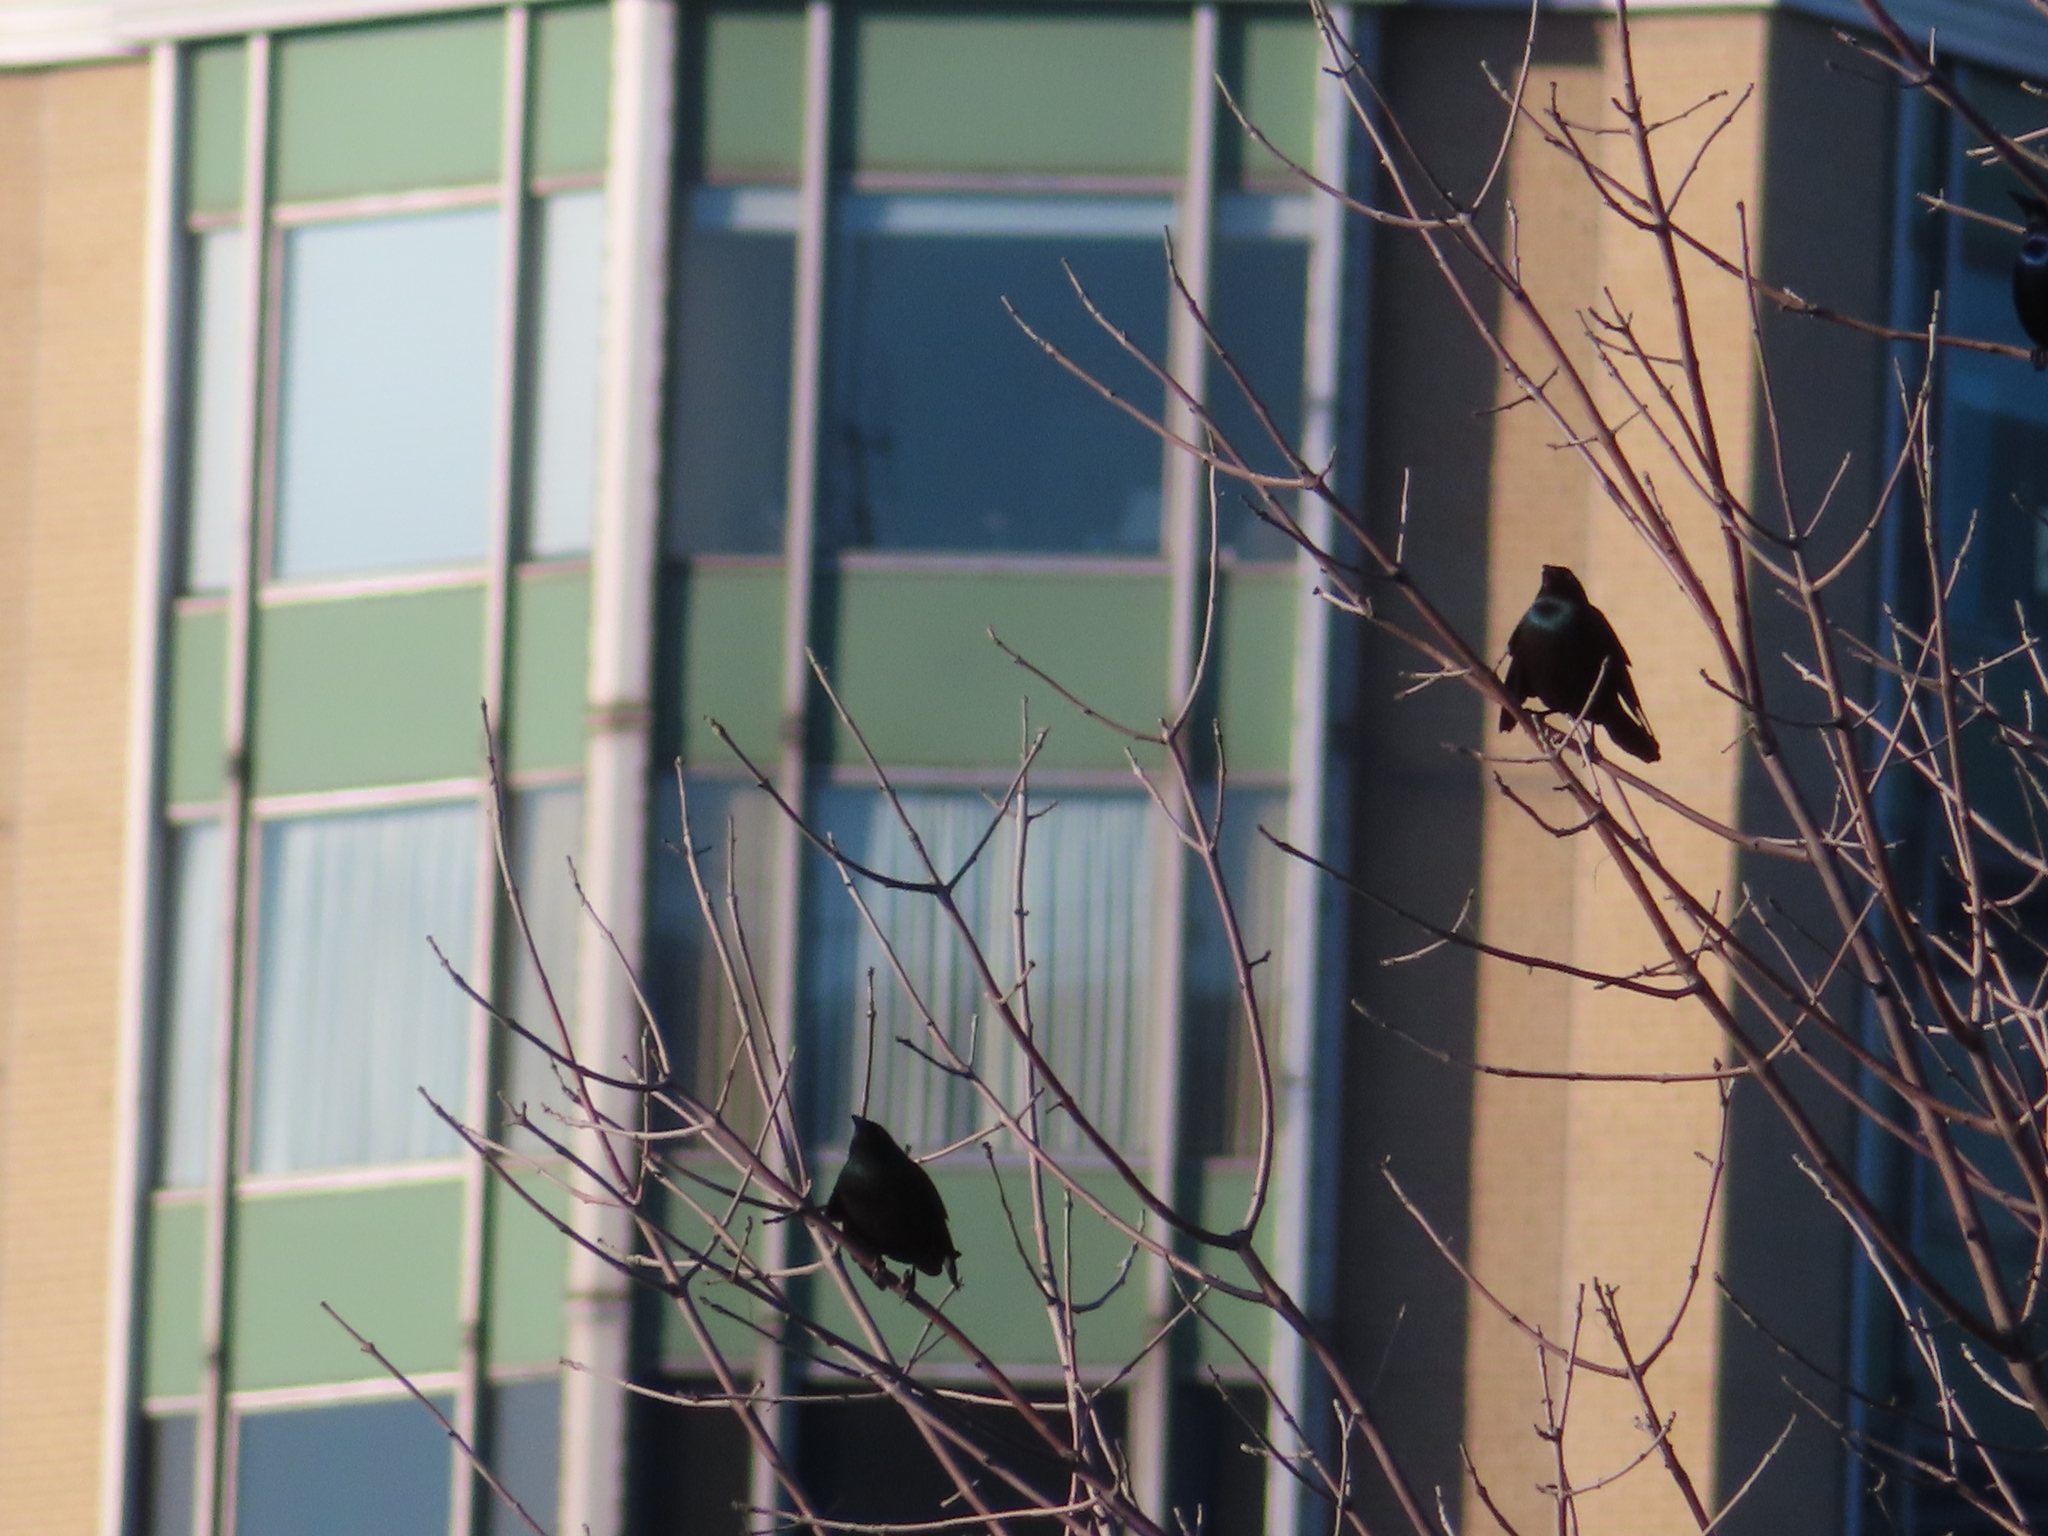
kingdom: Animalia
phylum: Chordata
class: Aves
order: Passeriformes
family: Icteridae
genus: Quiscalus
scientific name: Quiscalus quiscula
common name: Common grackle
